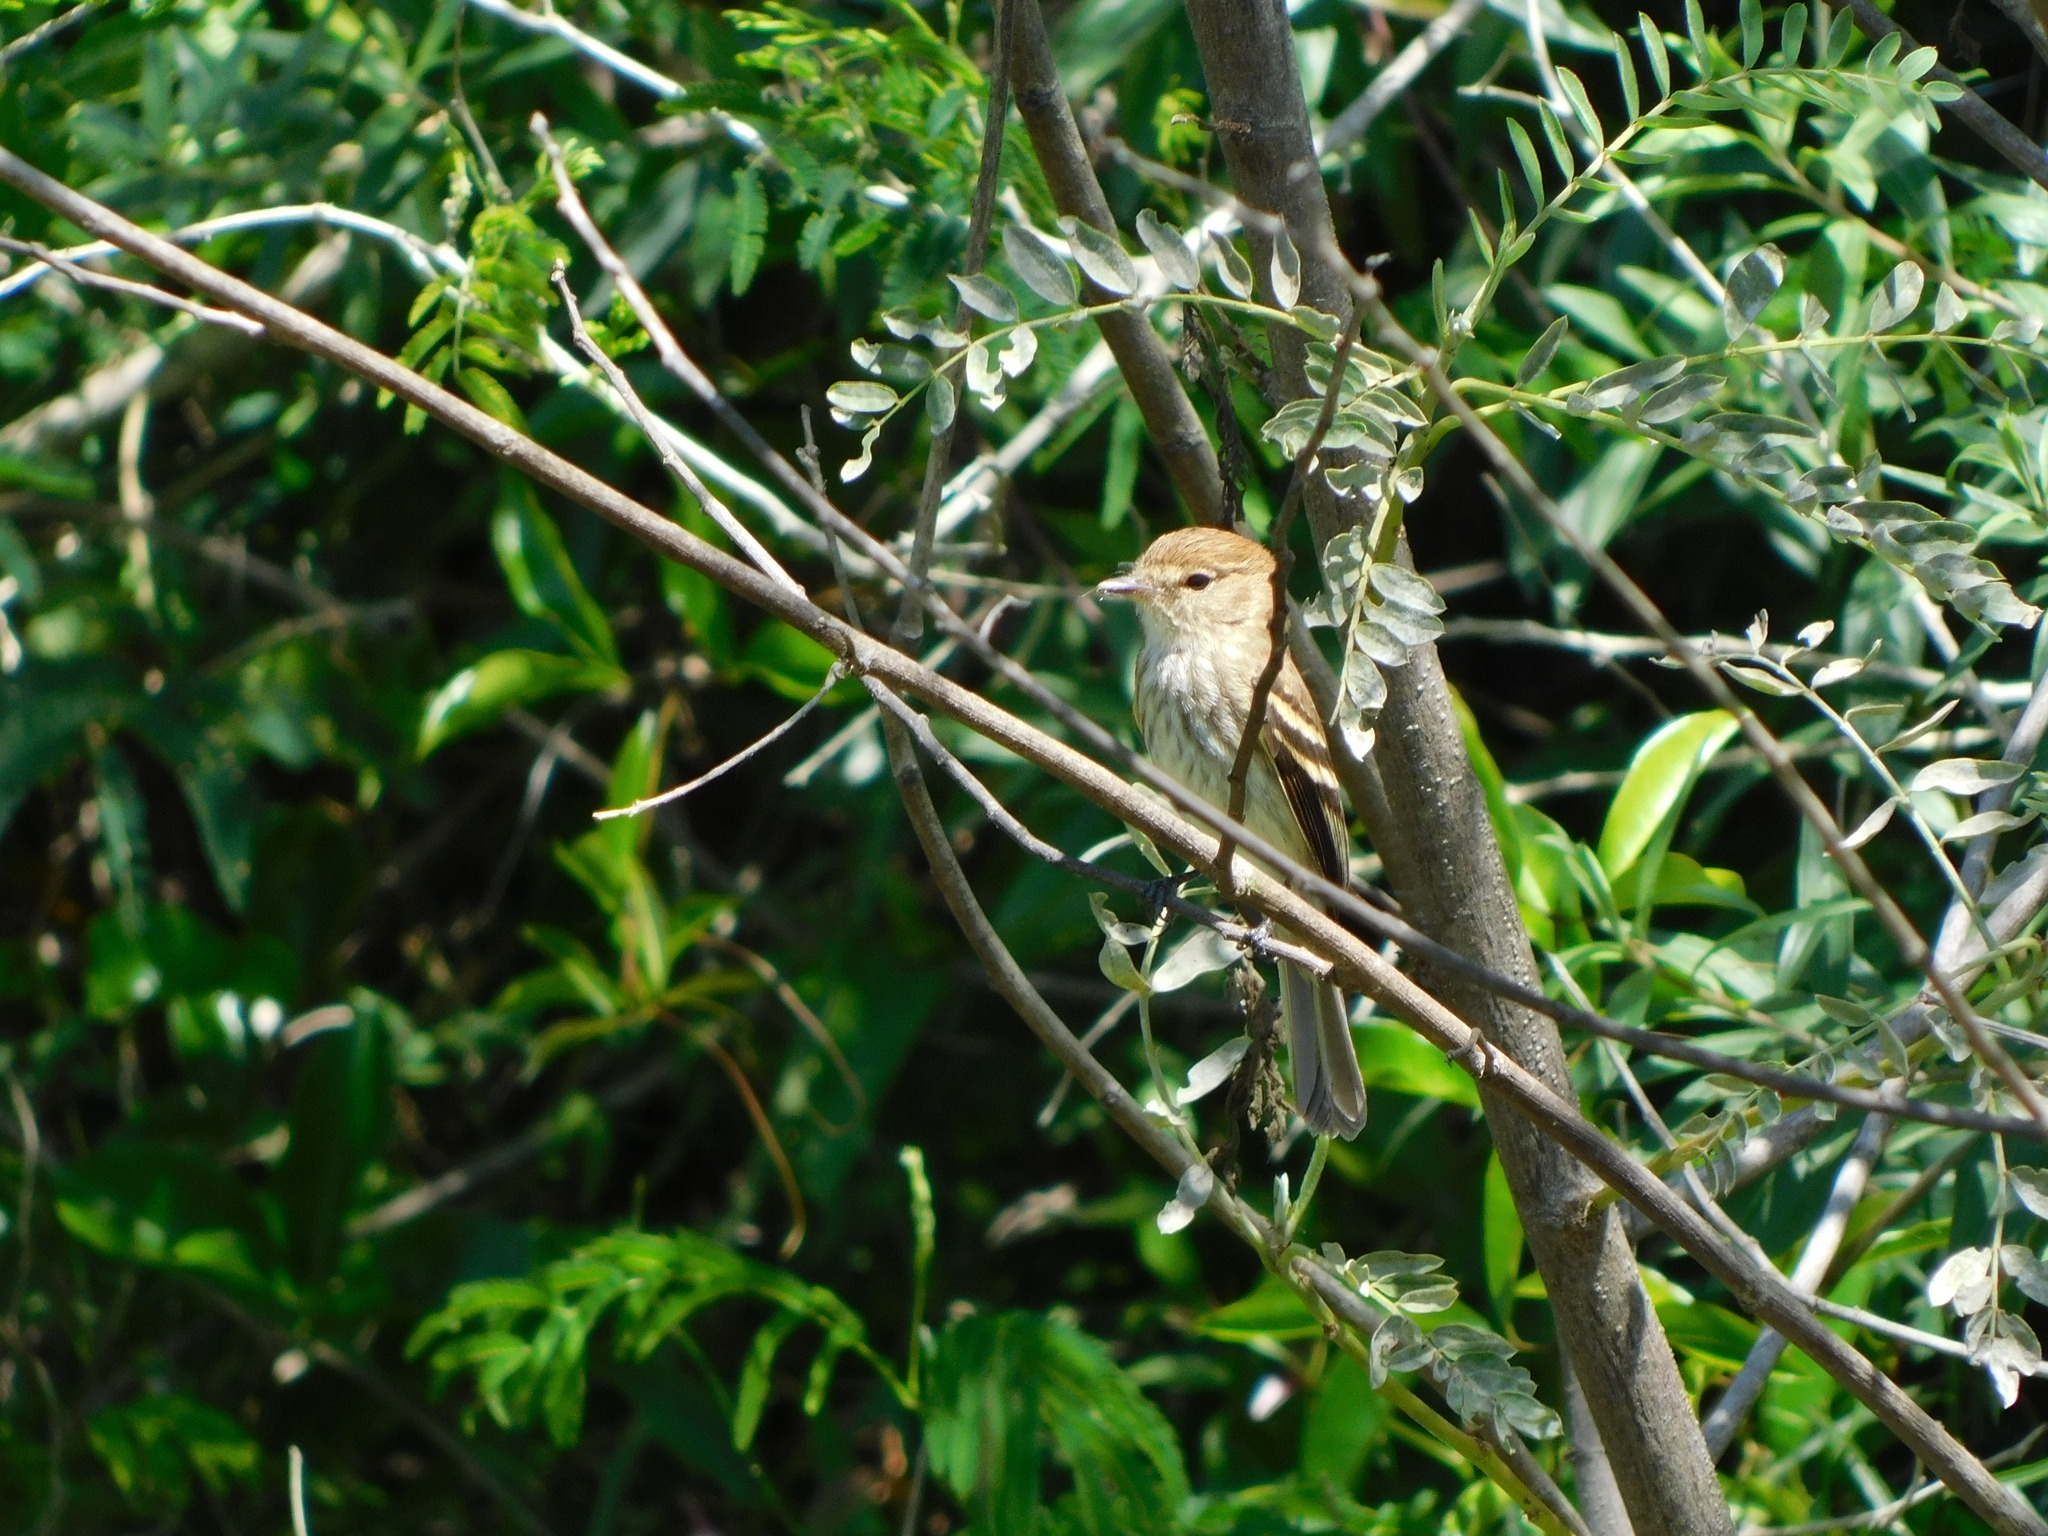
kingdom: Animalia
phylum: Chordata
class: Aves
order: Passeriformes
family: Tyrannidae
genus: Myiophobus
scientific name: Myiophobus fasciatus
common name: Bran-colored flycatcher
